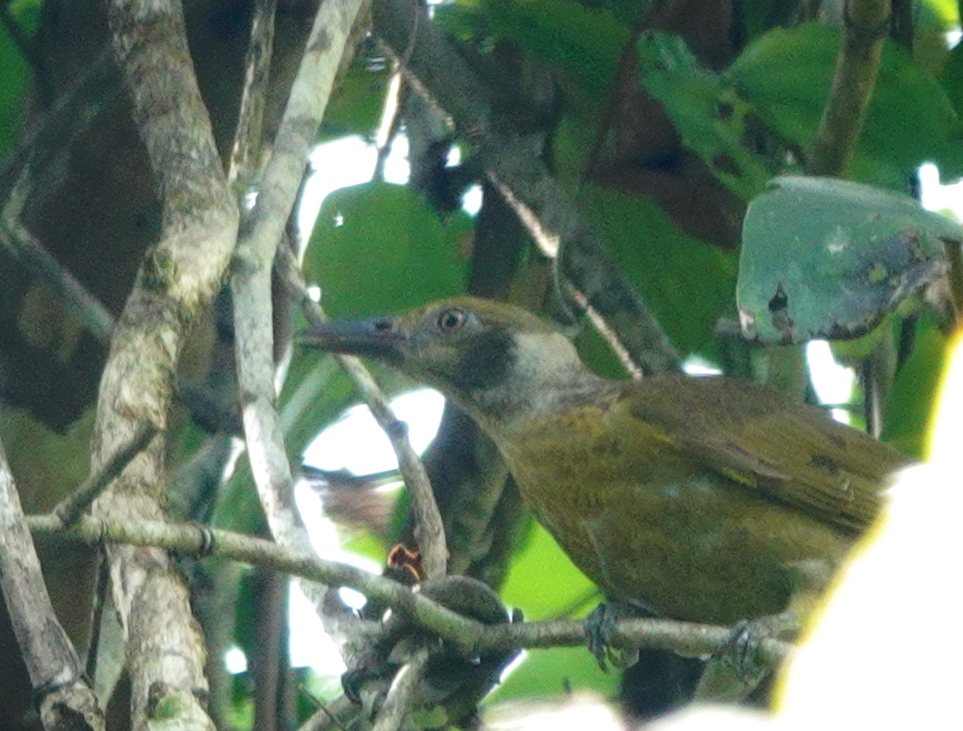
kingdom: Animalia
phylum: Chordata
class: Aves
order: Passeriformes
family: Oriolidae
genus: Oriolus
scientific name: Oriolus forsteni
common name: Grey-collared oriole
